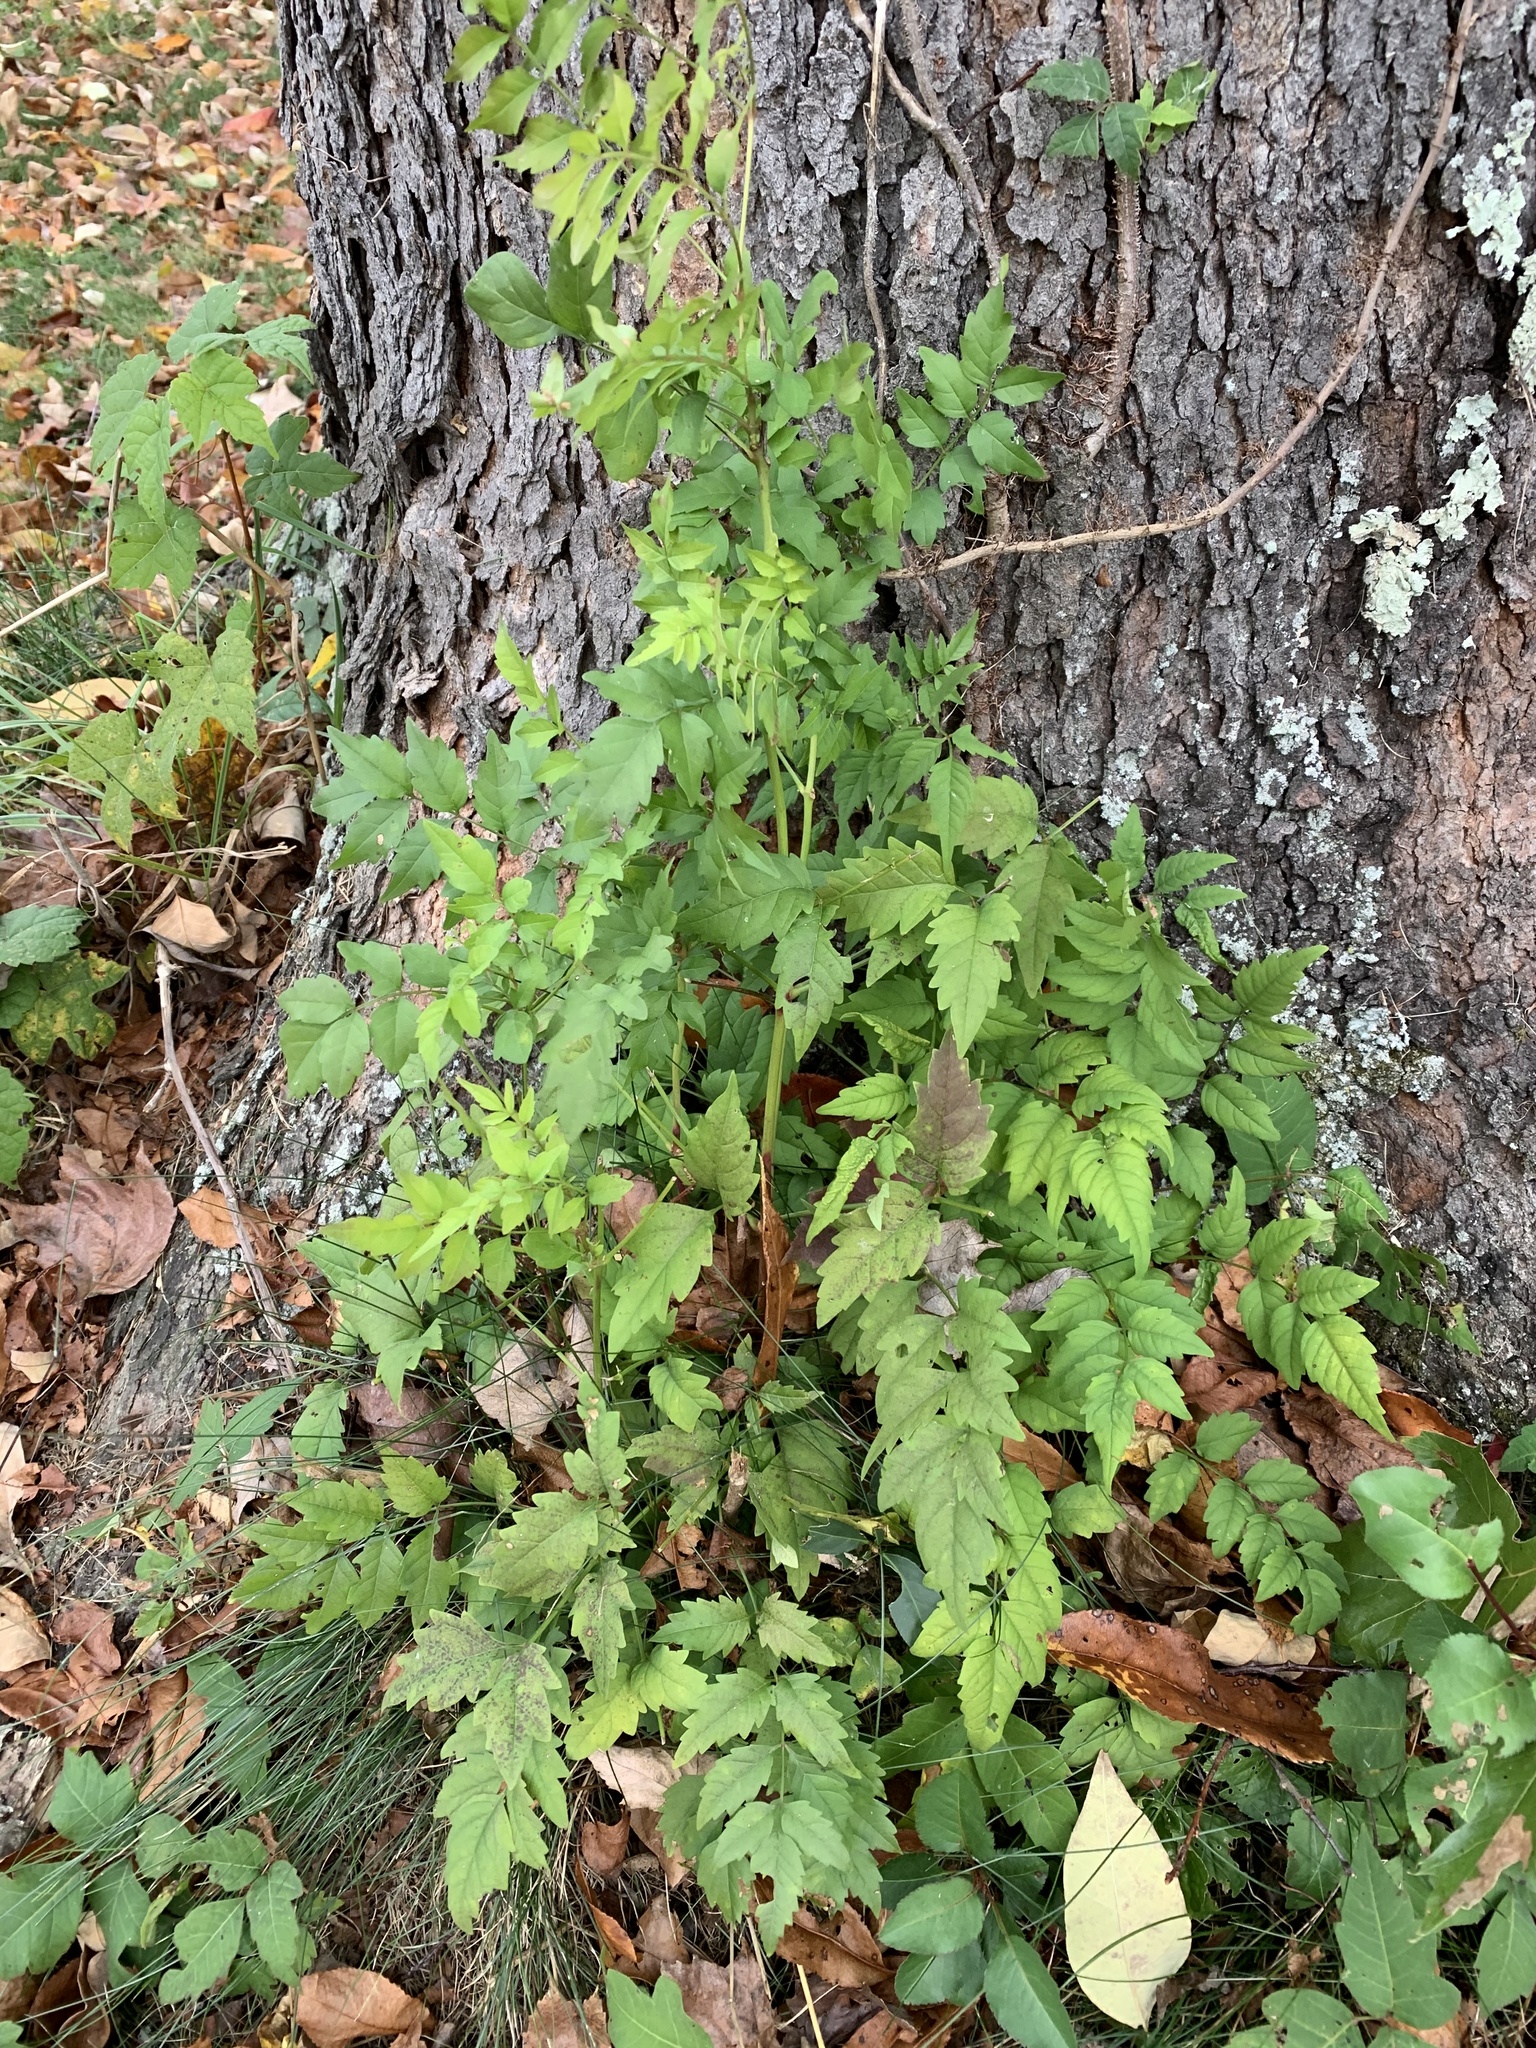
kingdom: Plantae
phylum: Tracheophyta
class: Magnoliopsida
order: Lamiales
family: Bignoniaceae
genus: Campsis
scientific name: Campsis radicans
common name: Trumpet-creeper
